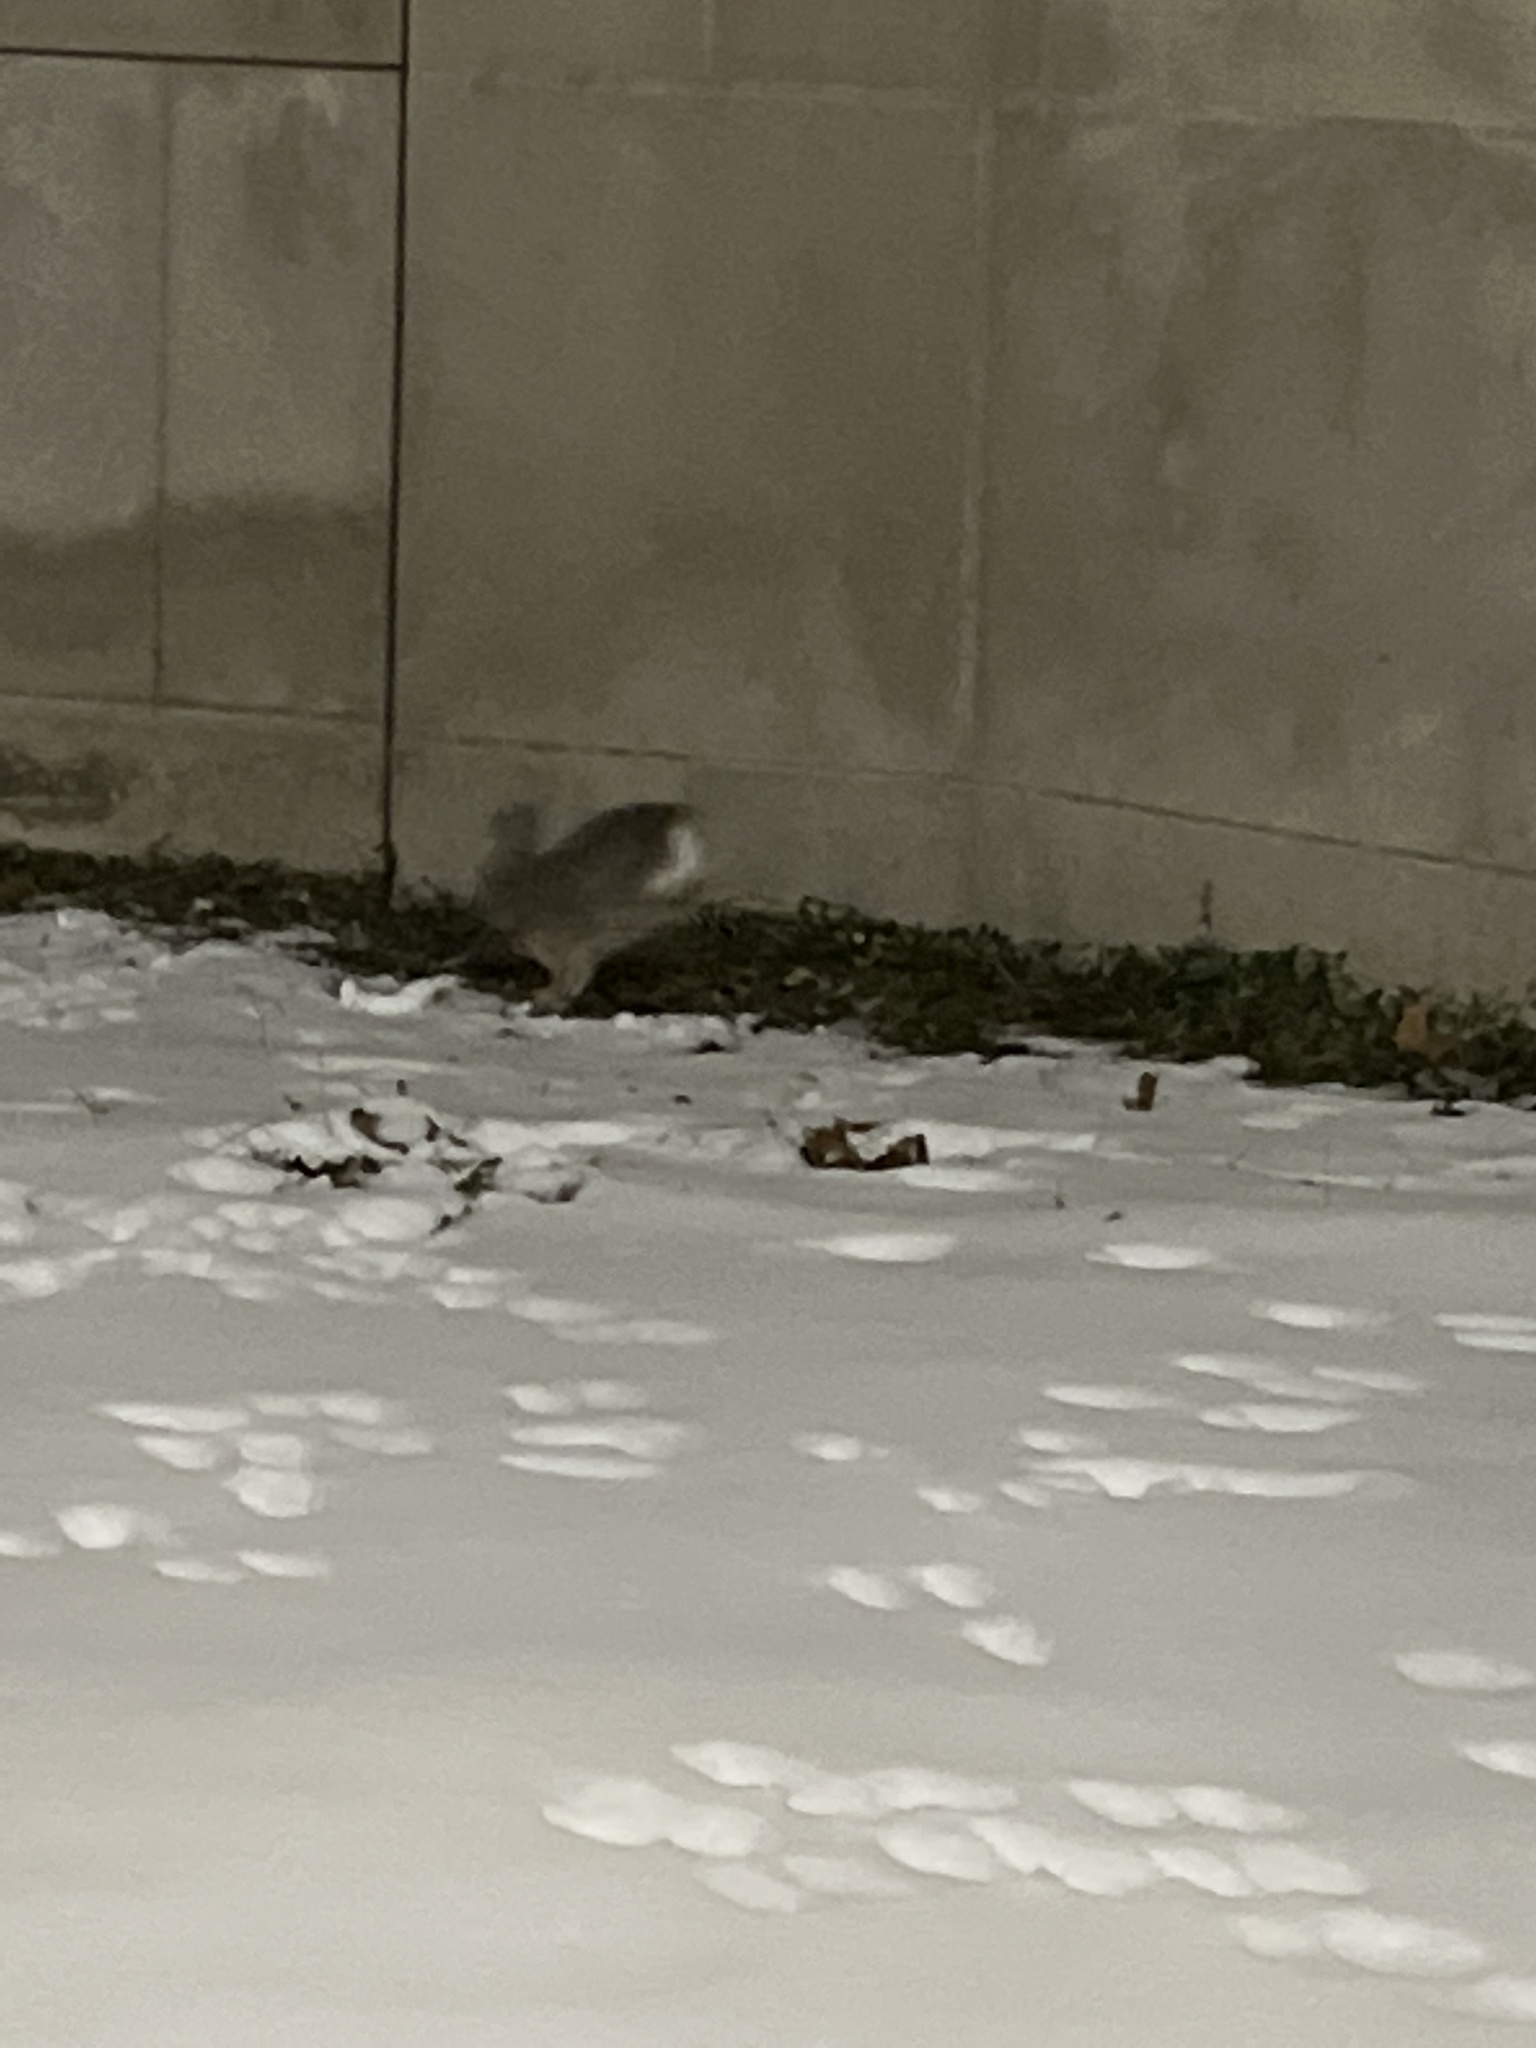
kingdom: Animalia
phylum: Chordata
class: Mammalia
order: Lagomorpha
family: Leporidae
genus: Sylvilagus
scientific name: Sylvilagus floridanus
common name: Eastern cottontail
